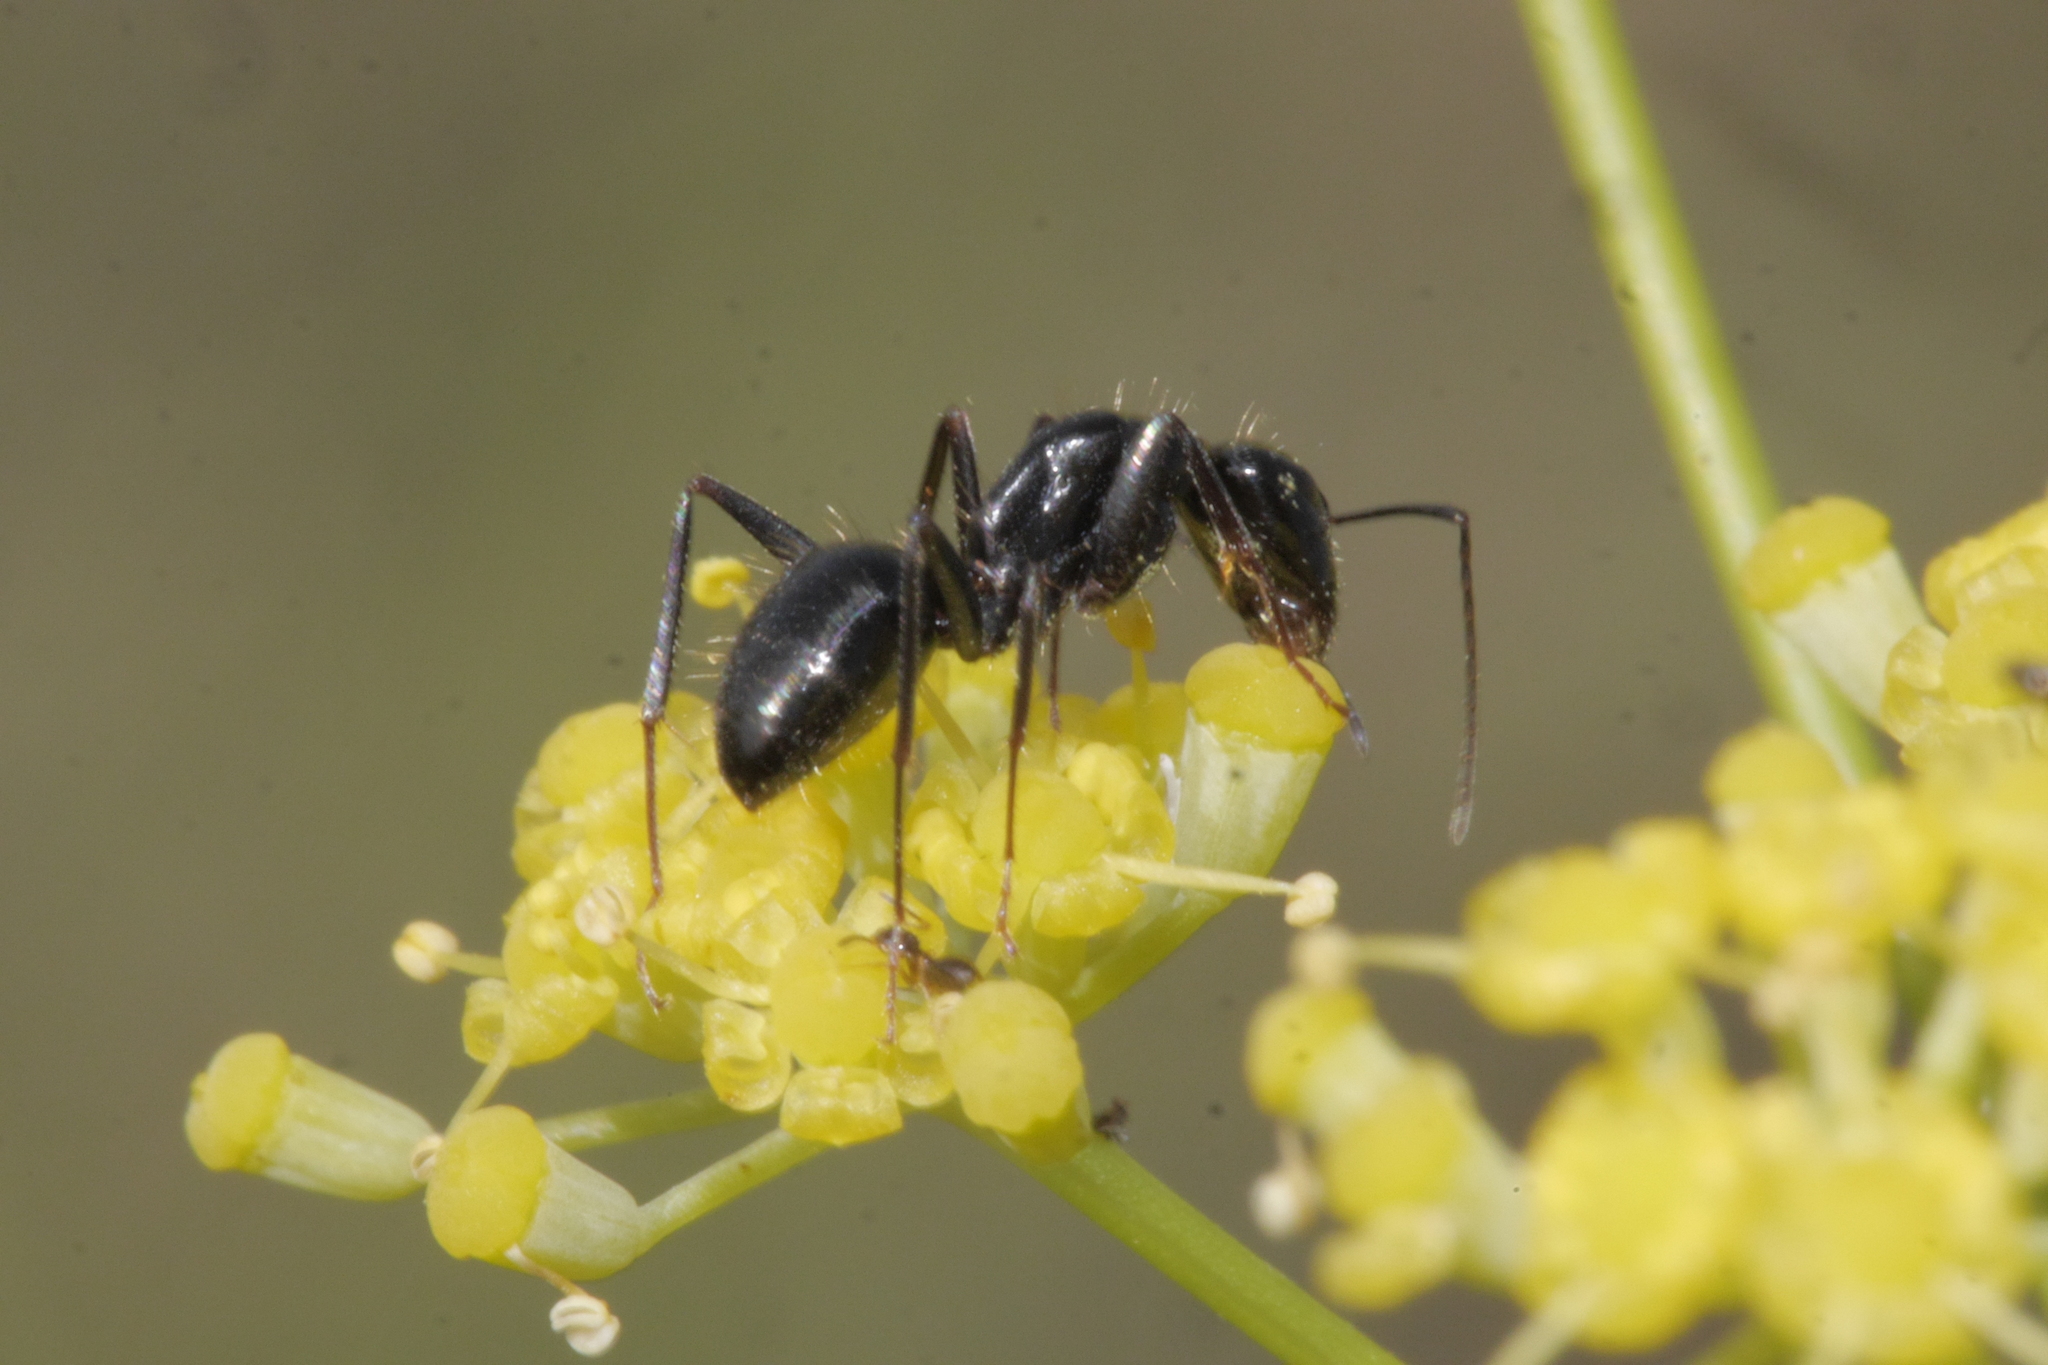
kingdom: Animalia
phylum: Arthropoda
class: Insecta
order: Hymenoptera
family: Formicidae
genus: Camponotus
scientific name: Camponotus aethiops
